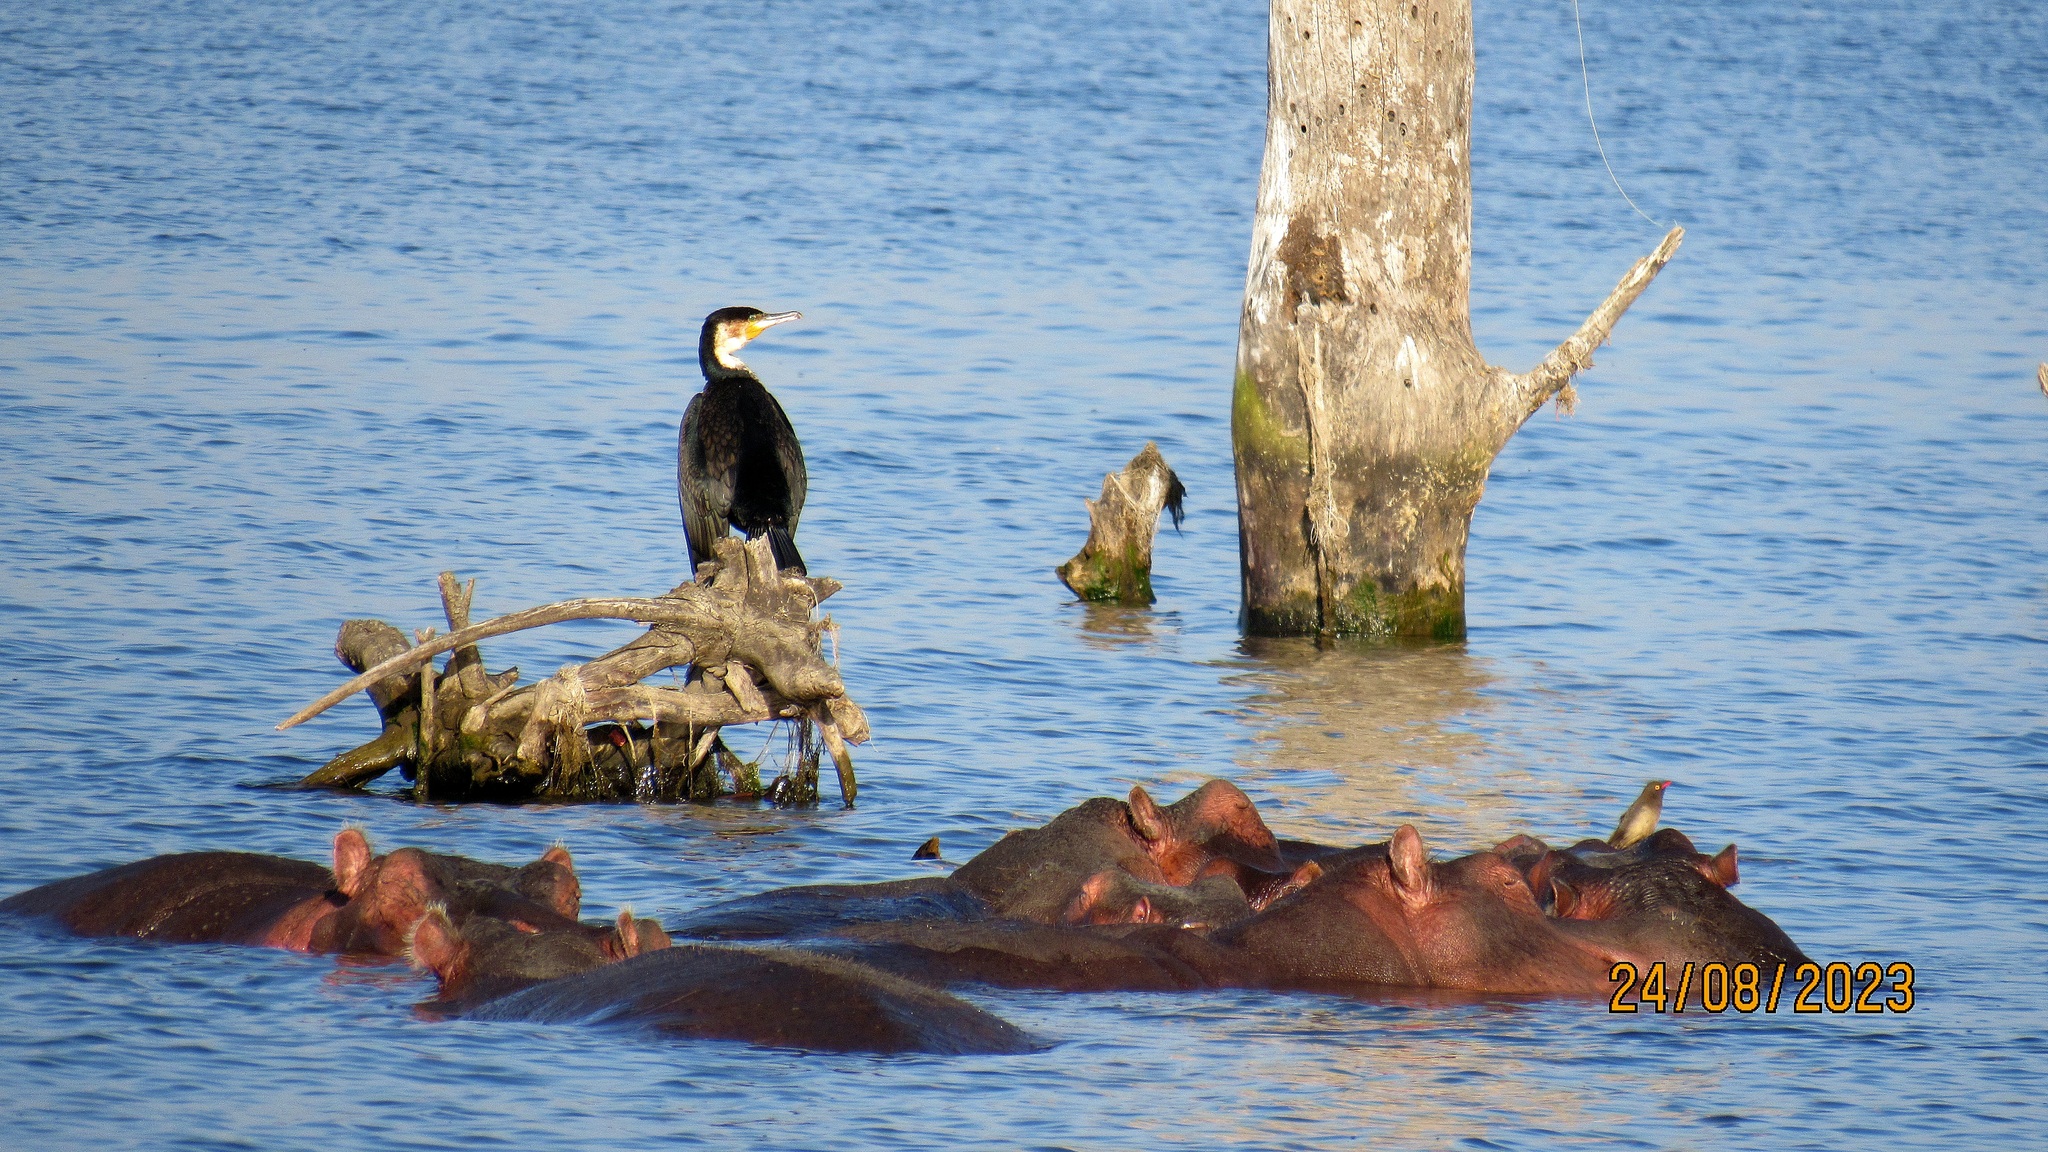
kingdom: Animalia
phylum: Chordata
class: Aves
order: Suliformes
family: Phalacrocoracidae
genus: Phalacrocorax
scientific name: Phalacrocorax carbo
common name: Great cormorant
